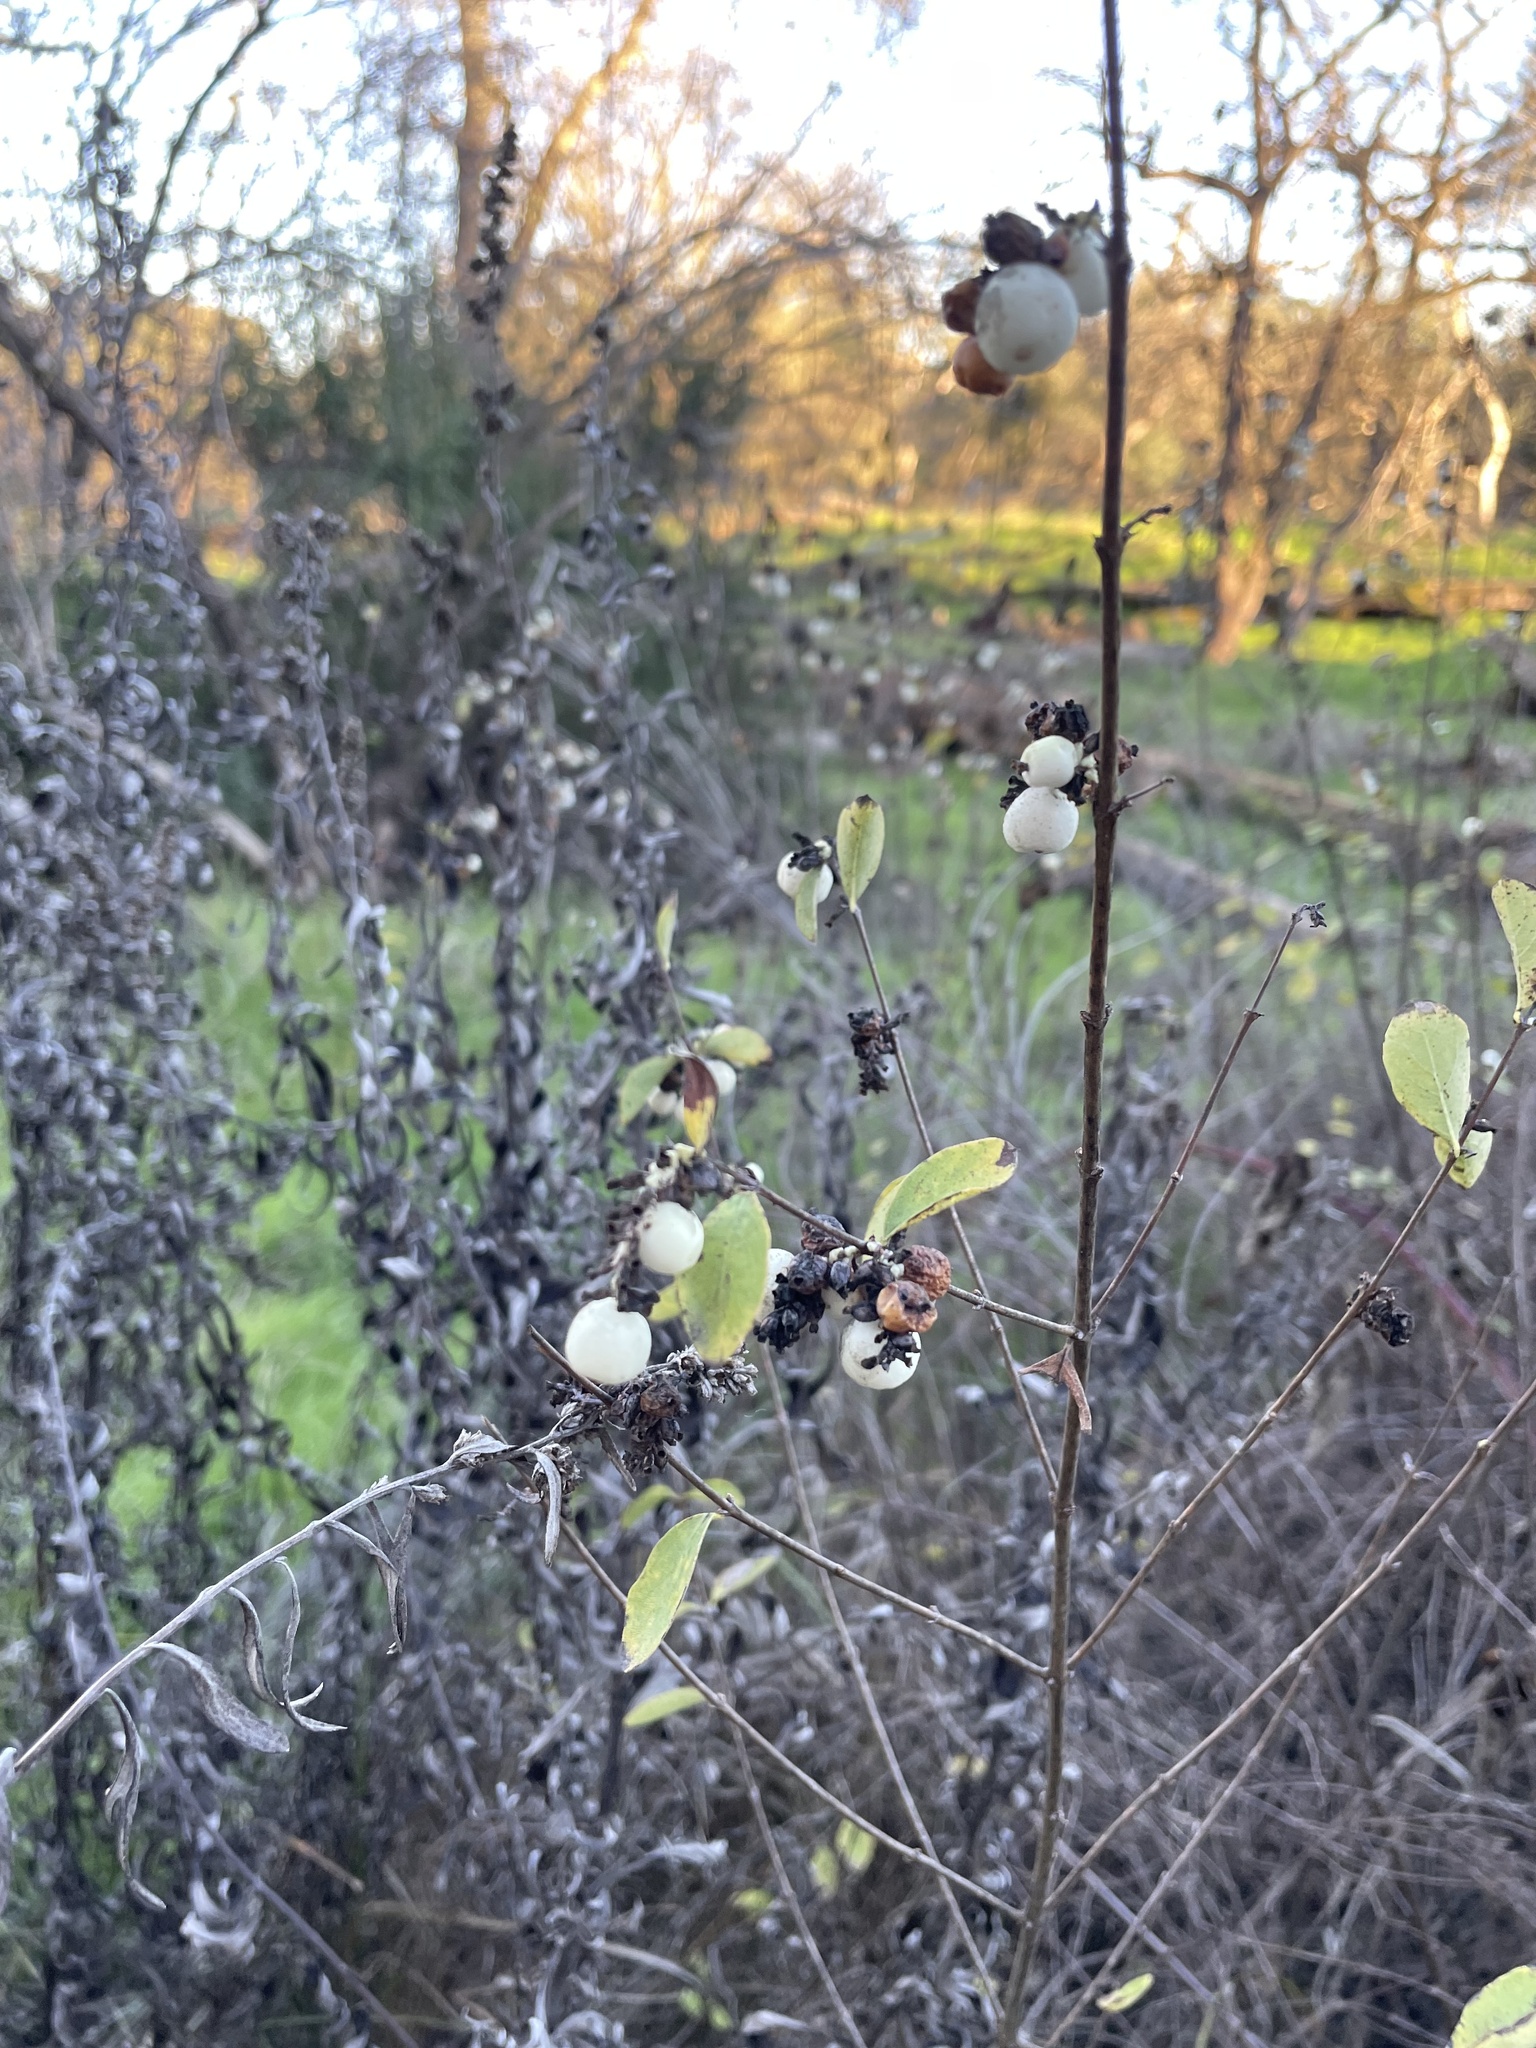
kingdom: Plantae
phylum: Tracheophyta
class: Magnoliopsida
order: Dipsacales
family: Caprifoliaceae
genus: Symphoricarpos
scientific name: Symphoricarpos albus
